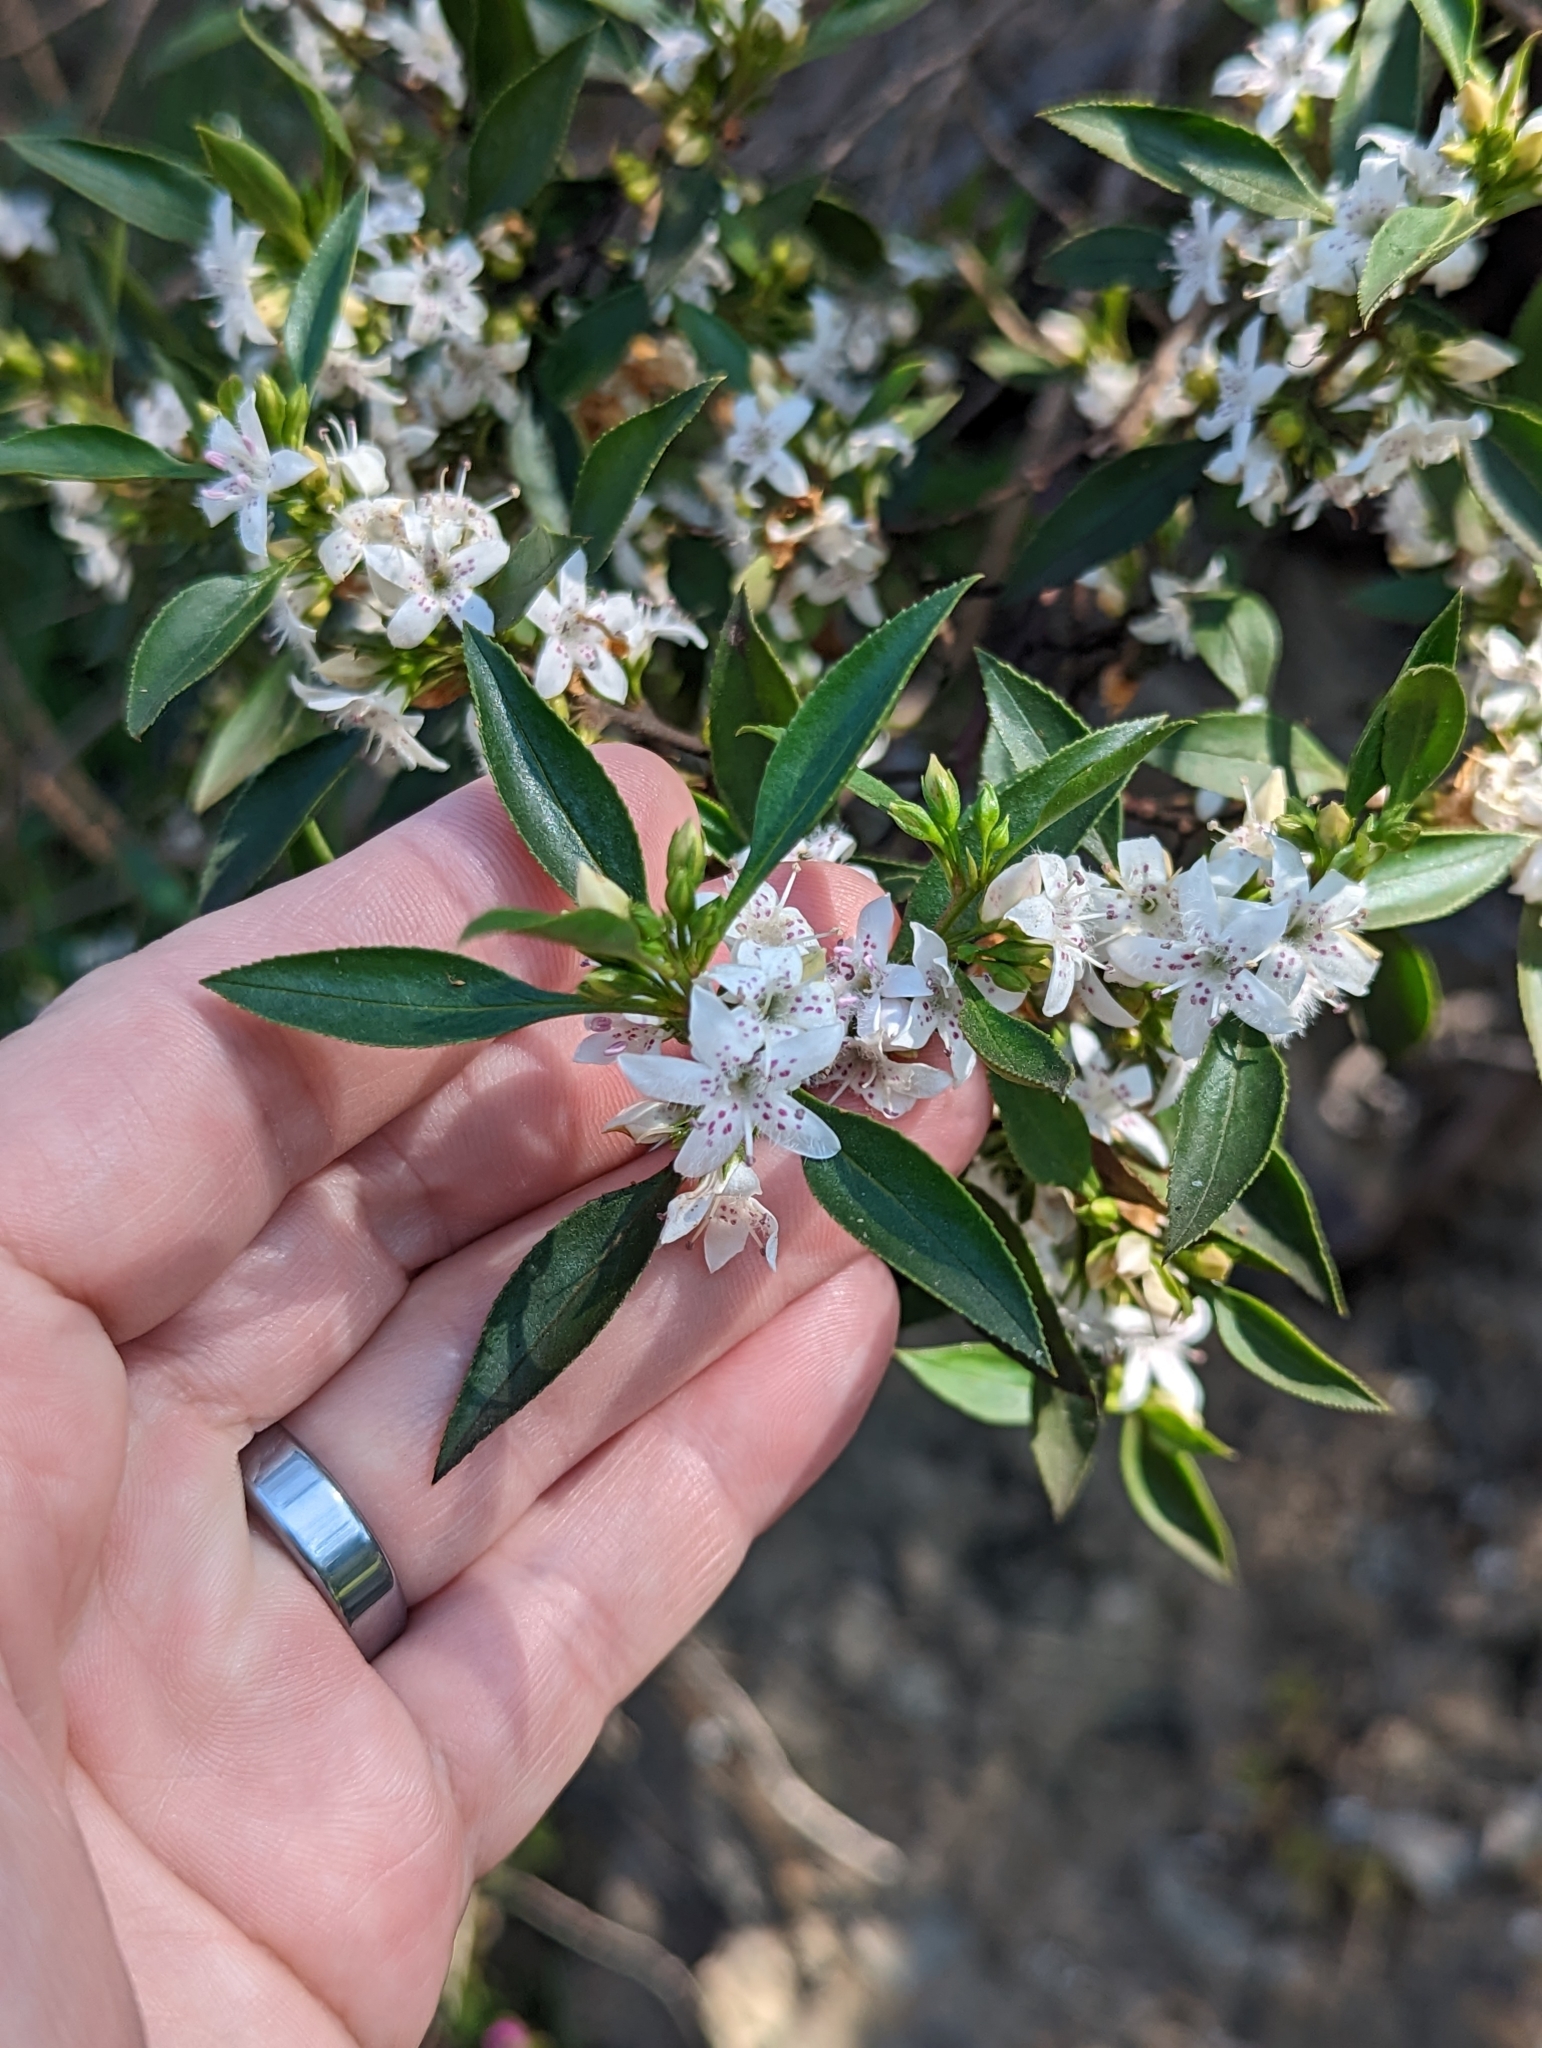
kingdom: Plantae
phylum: Tracheophyta
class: Magnoliopsida
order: Lamiales
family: Scrophulariaceae
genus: Myoporum
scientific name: Myoporum petiolatum
